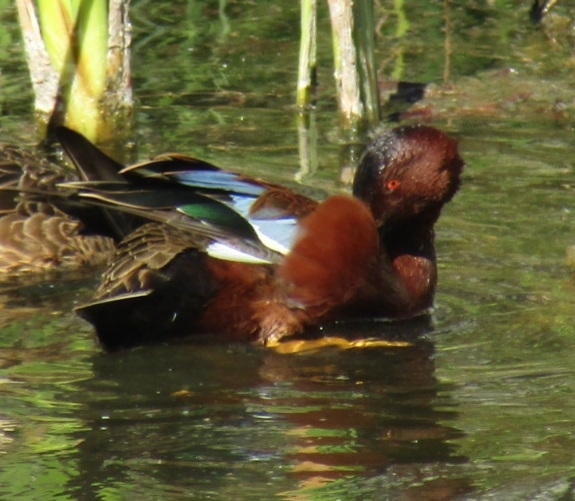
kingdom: Animalia
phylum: Chordata
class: Aves
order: Anseriformes
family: Anatidae
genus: Spatula
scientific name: Spatula cyanoptera
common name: Cinnamon teal
